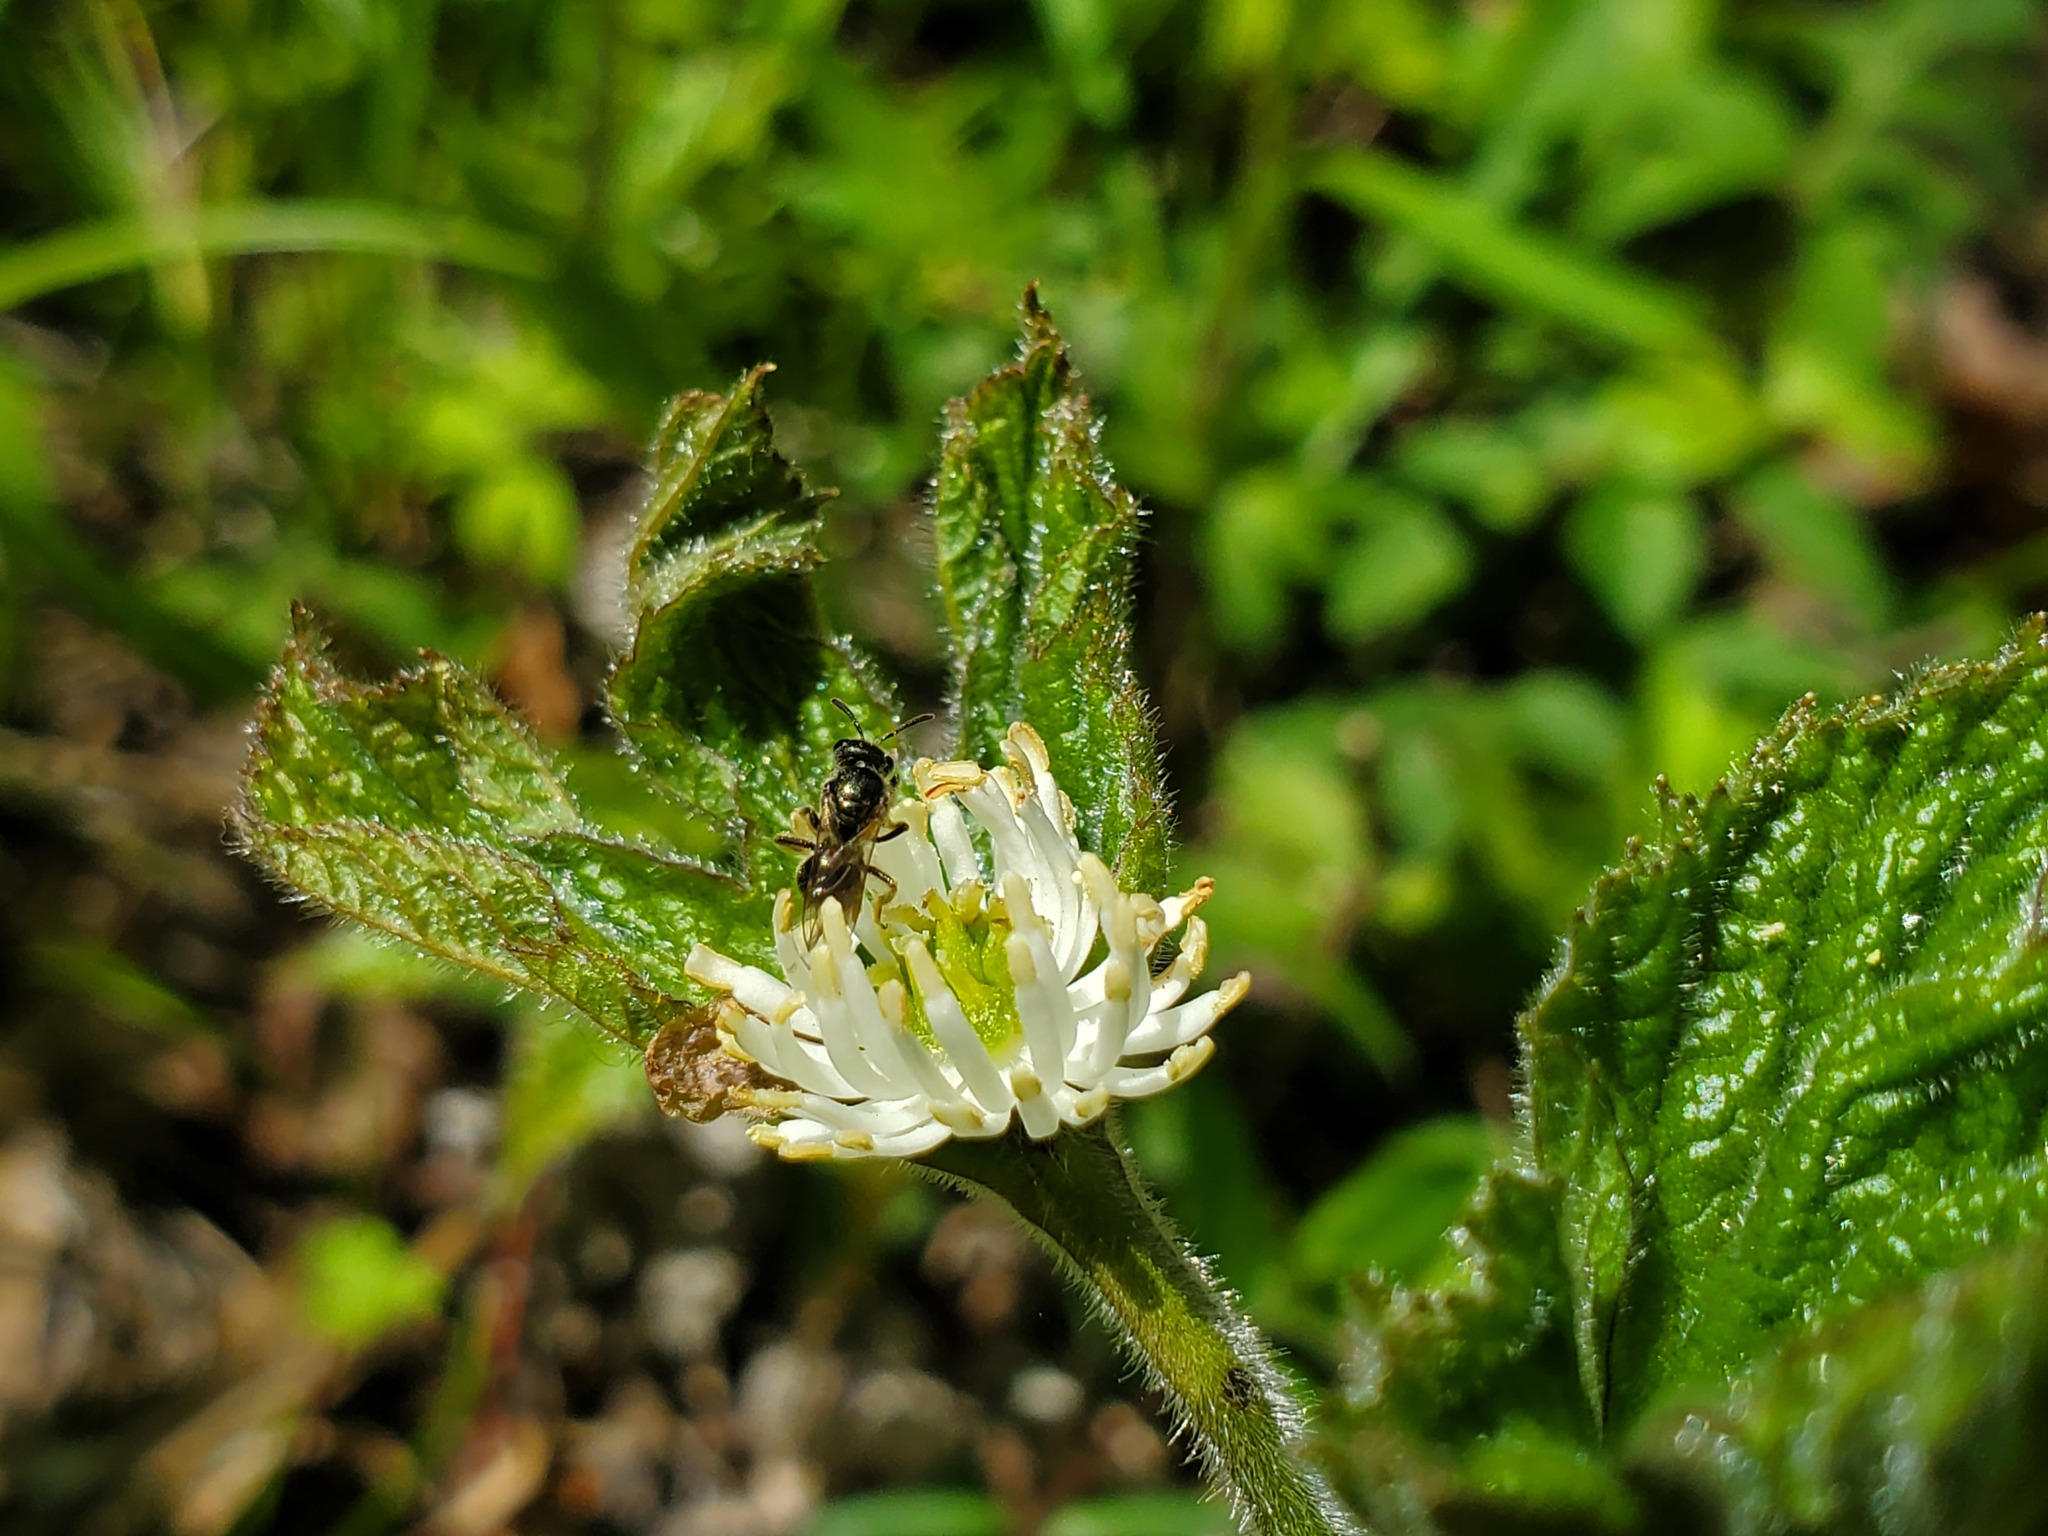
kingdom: Plantae
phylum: Tracheophyta
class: Magnoliopsida
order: Ranunculales
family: Ranunculaceae
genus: Hydrastis
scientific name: Hydrastis canadensis
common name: Goldenseal
